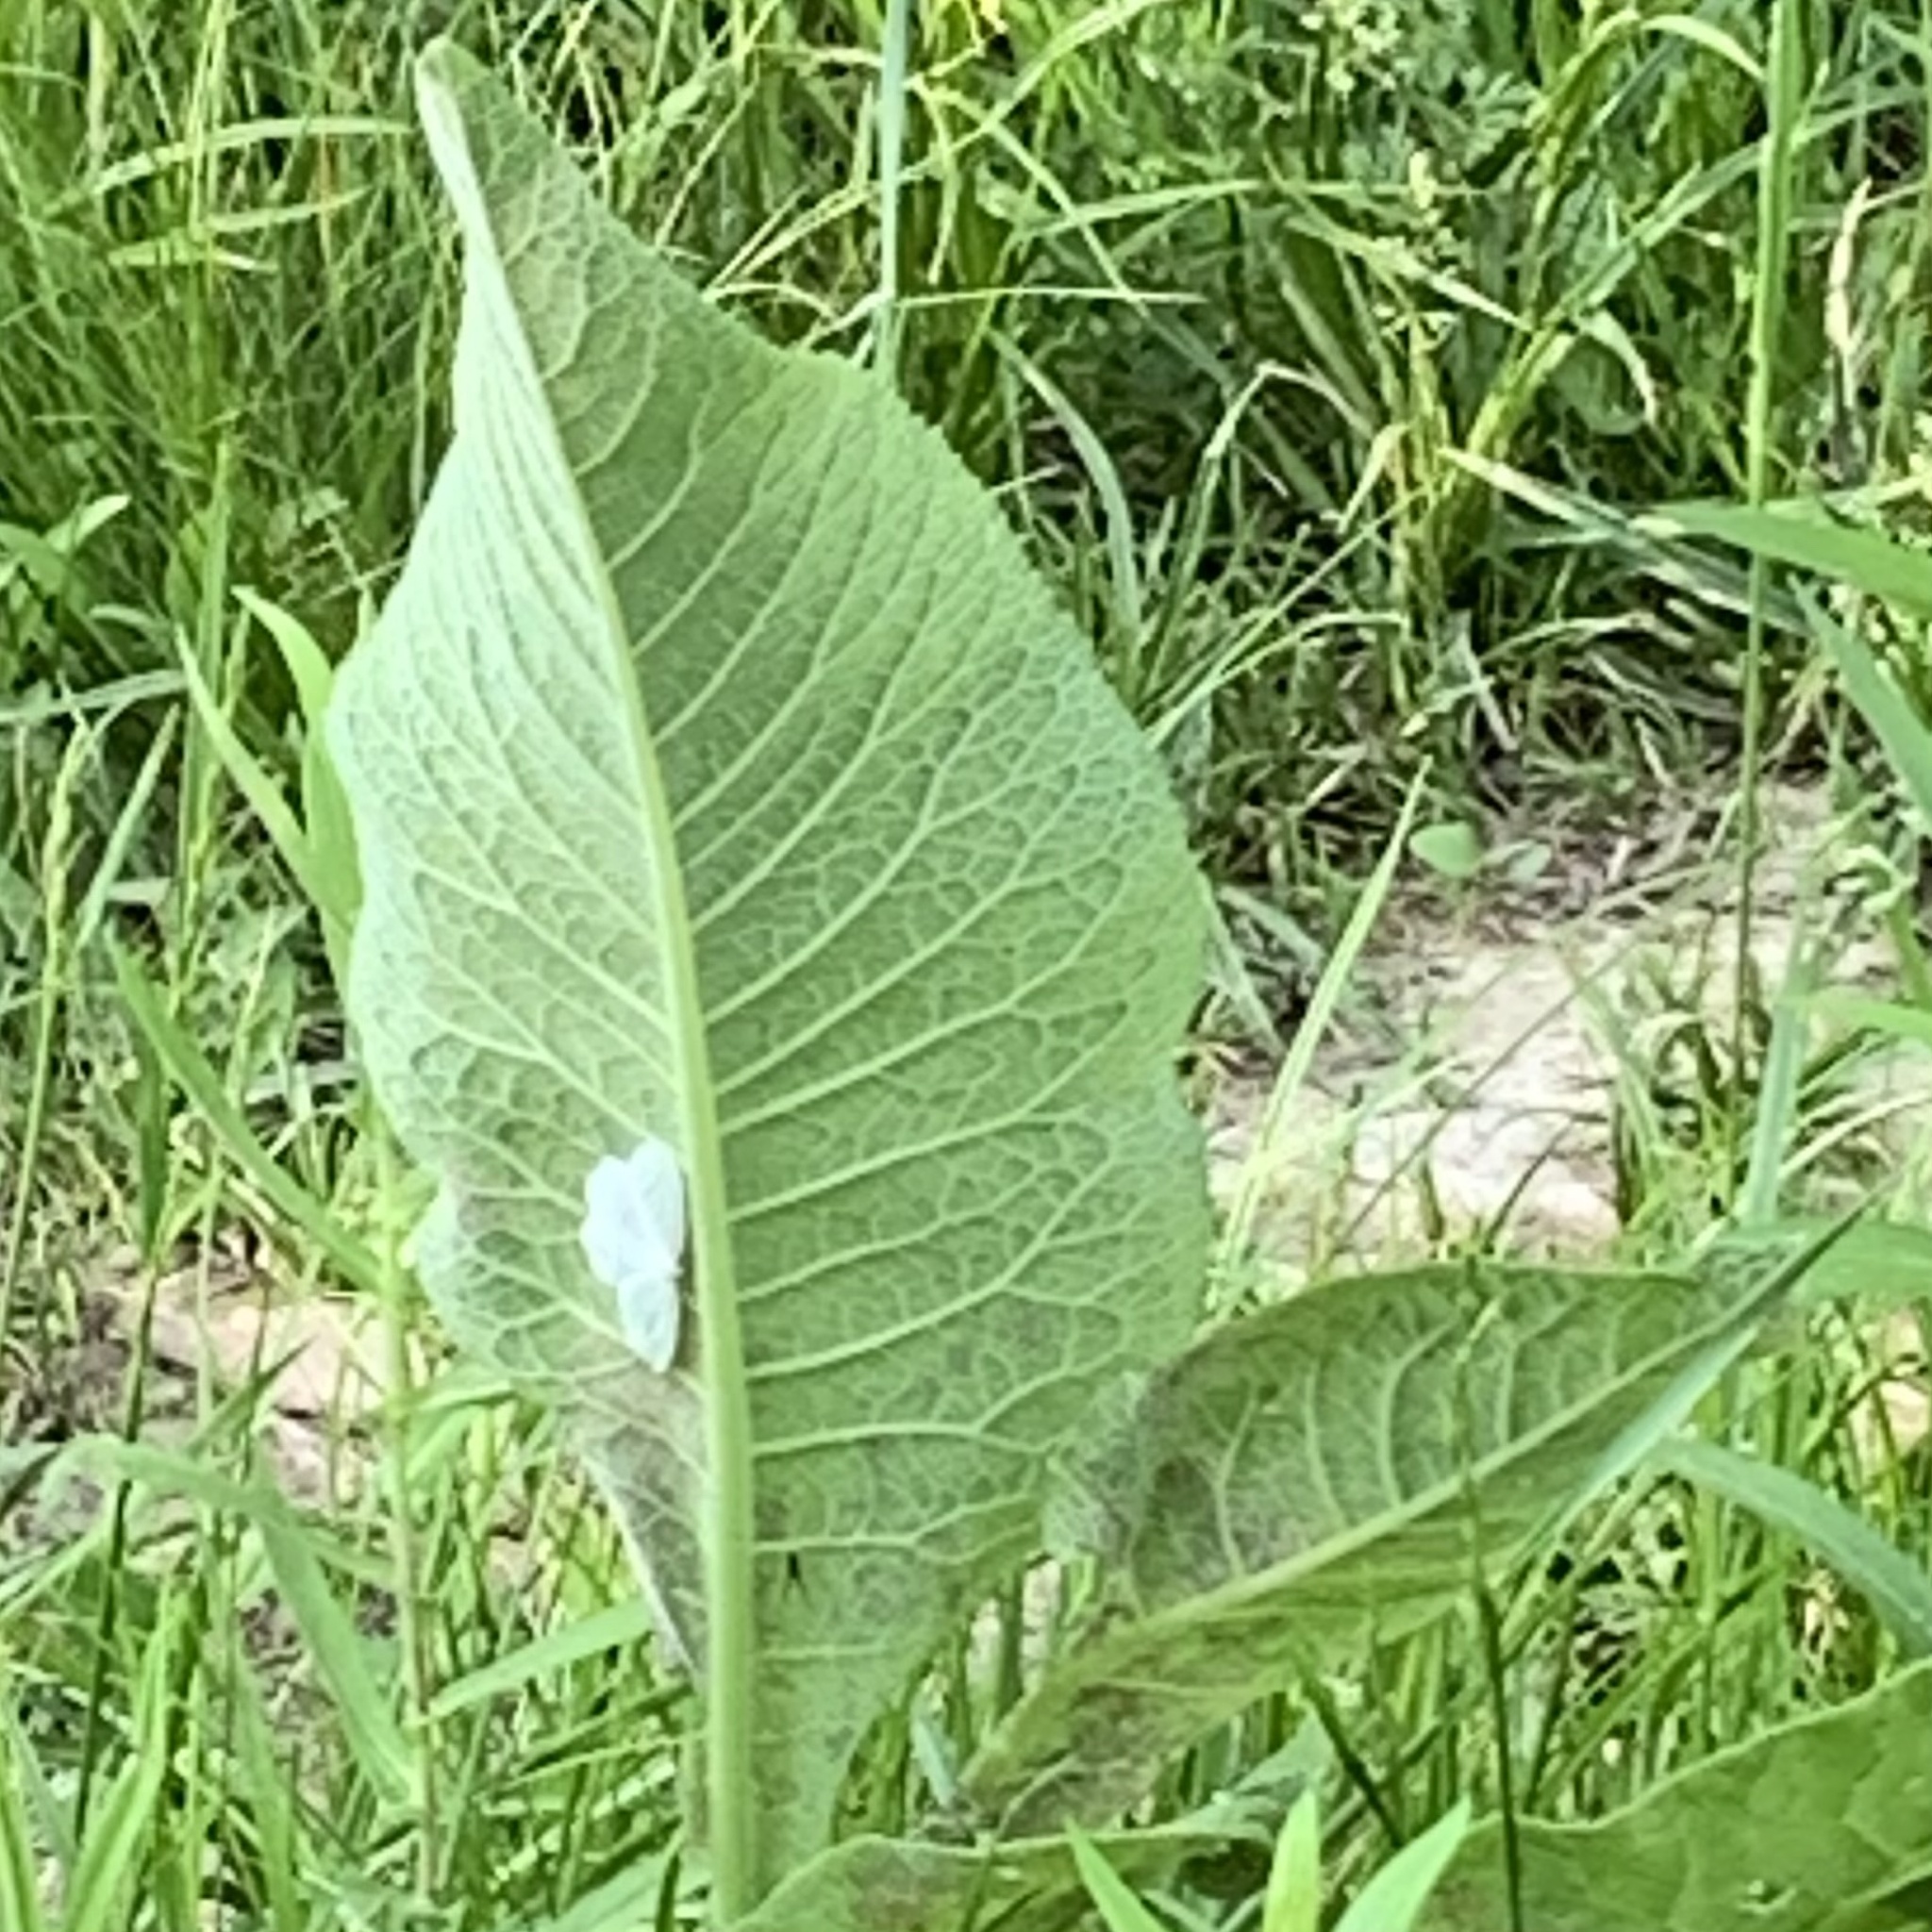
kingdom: Animalia
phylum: Arthropoda
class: Insecta
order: Lepidoptera
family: Geometridae
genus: Campaea
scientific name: Campaea perlata
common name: Fringed looper
